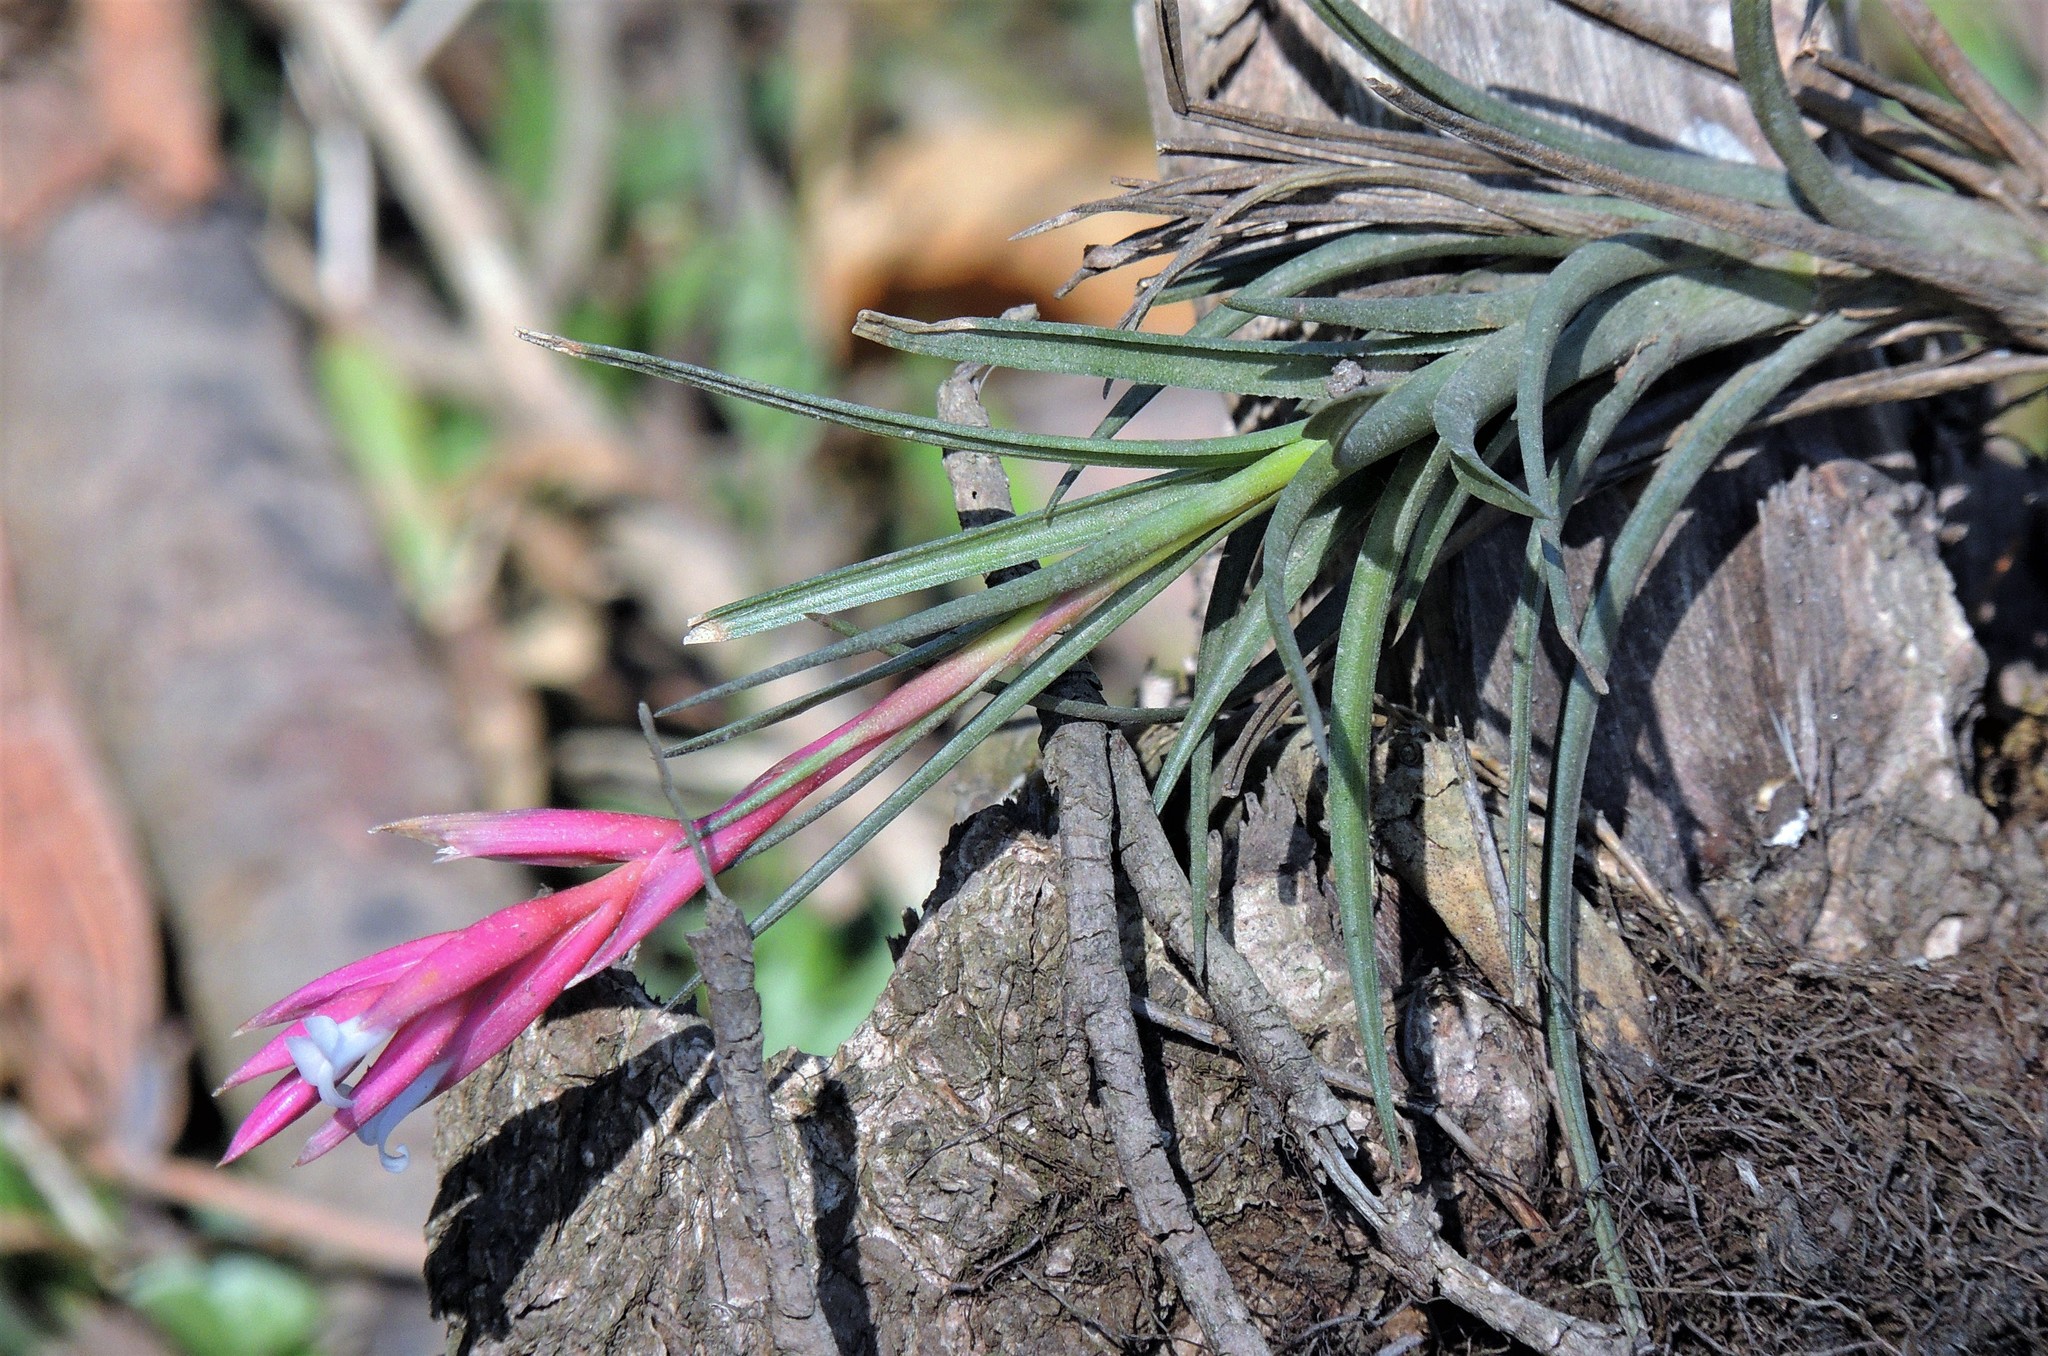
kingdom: Plantae
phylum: Tracheophyta
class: Liliopsida
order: Poales
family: Bromeliaceae
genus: Tillandsia
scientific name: Tillandsia tenuifolia
